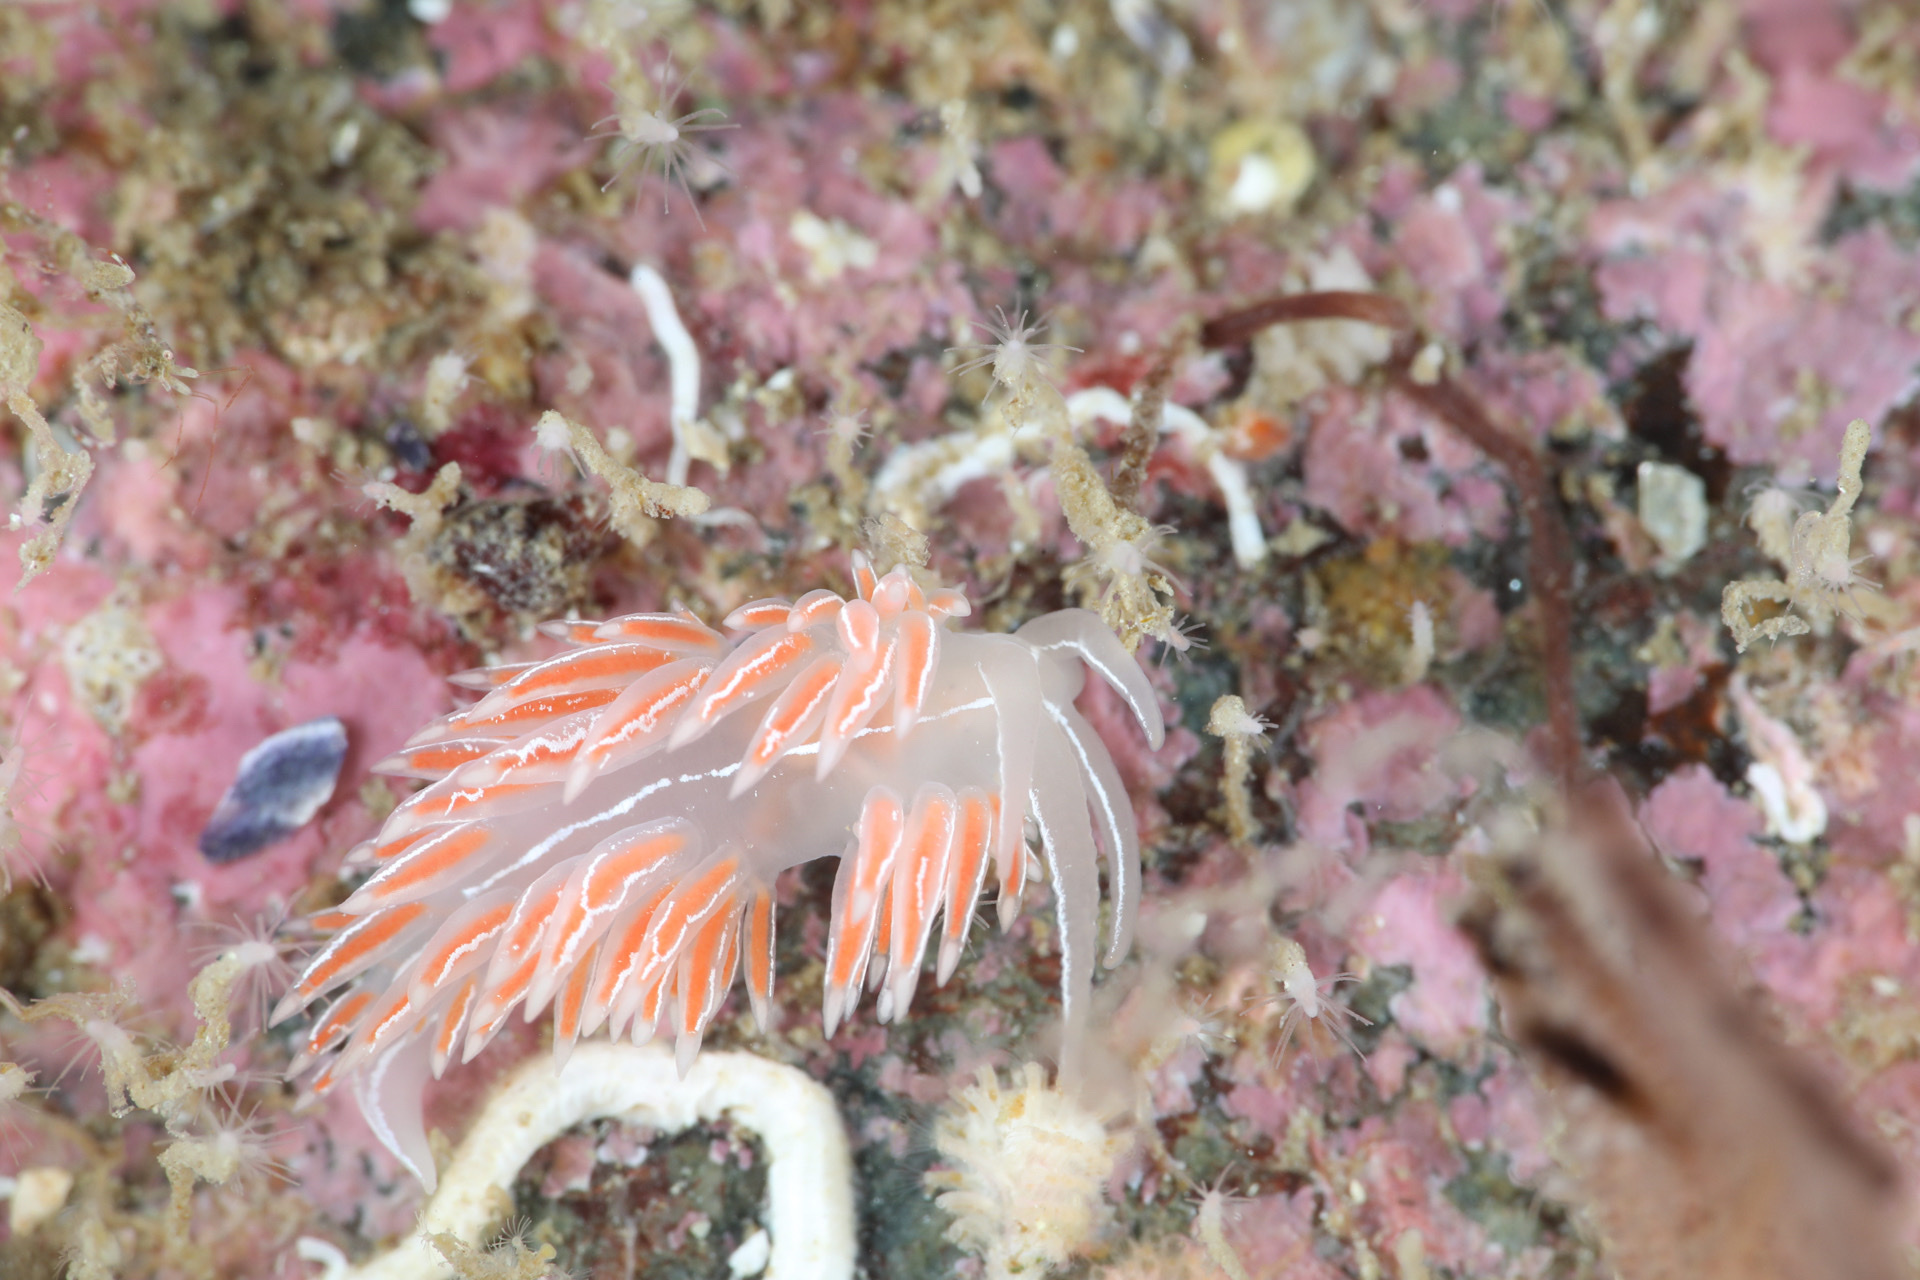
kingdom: Animalia
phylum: Mollusca
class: Gastropoda
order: Nudibranchia
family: Coryphellidae
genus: Coryphella
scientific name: Coryphella chriskaugei
